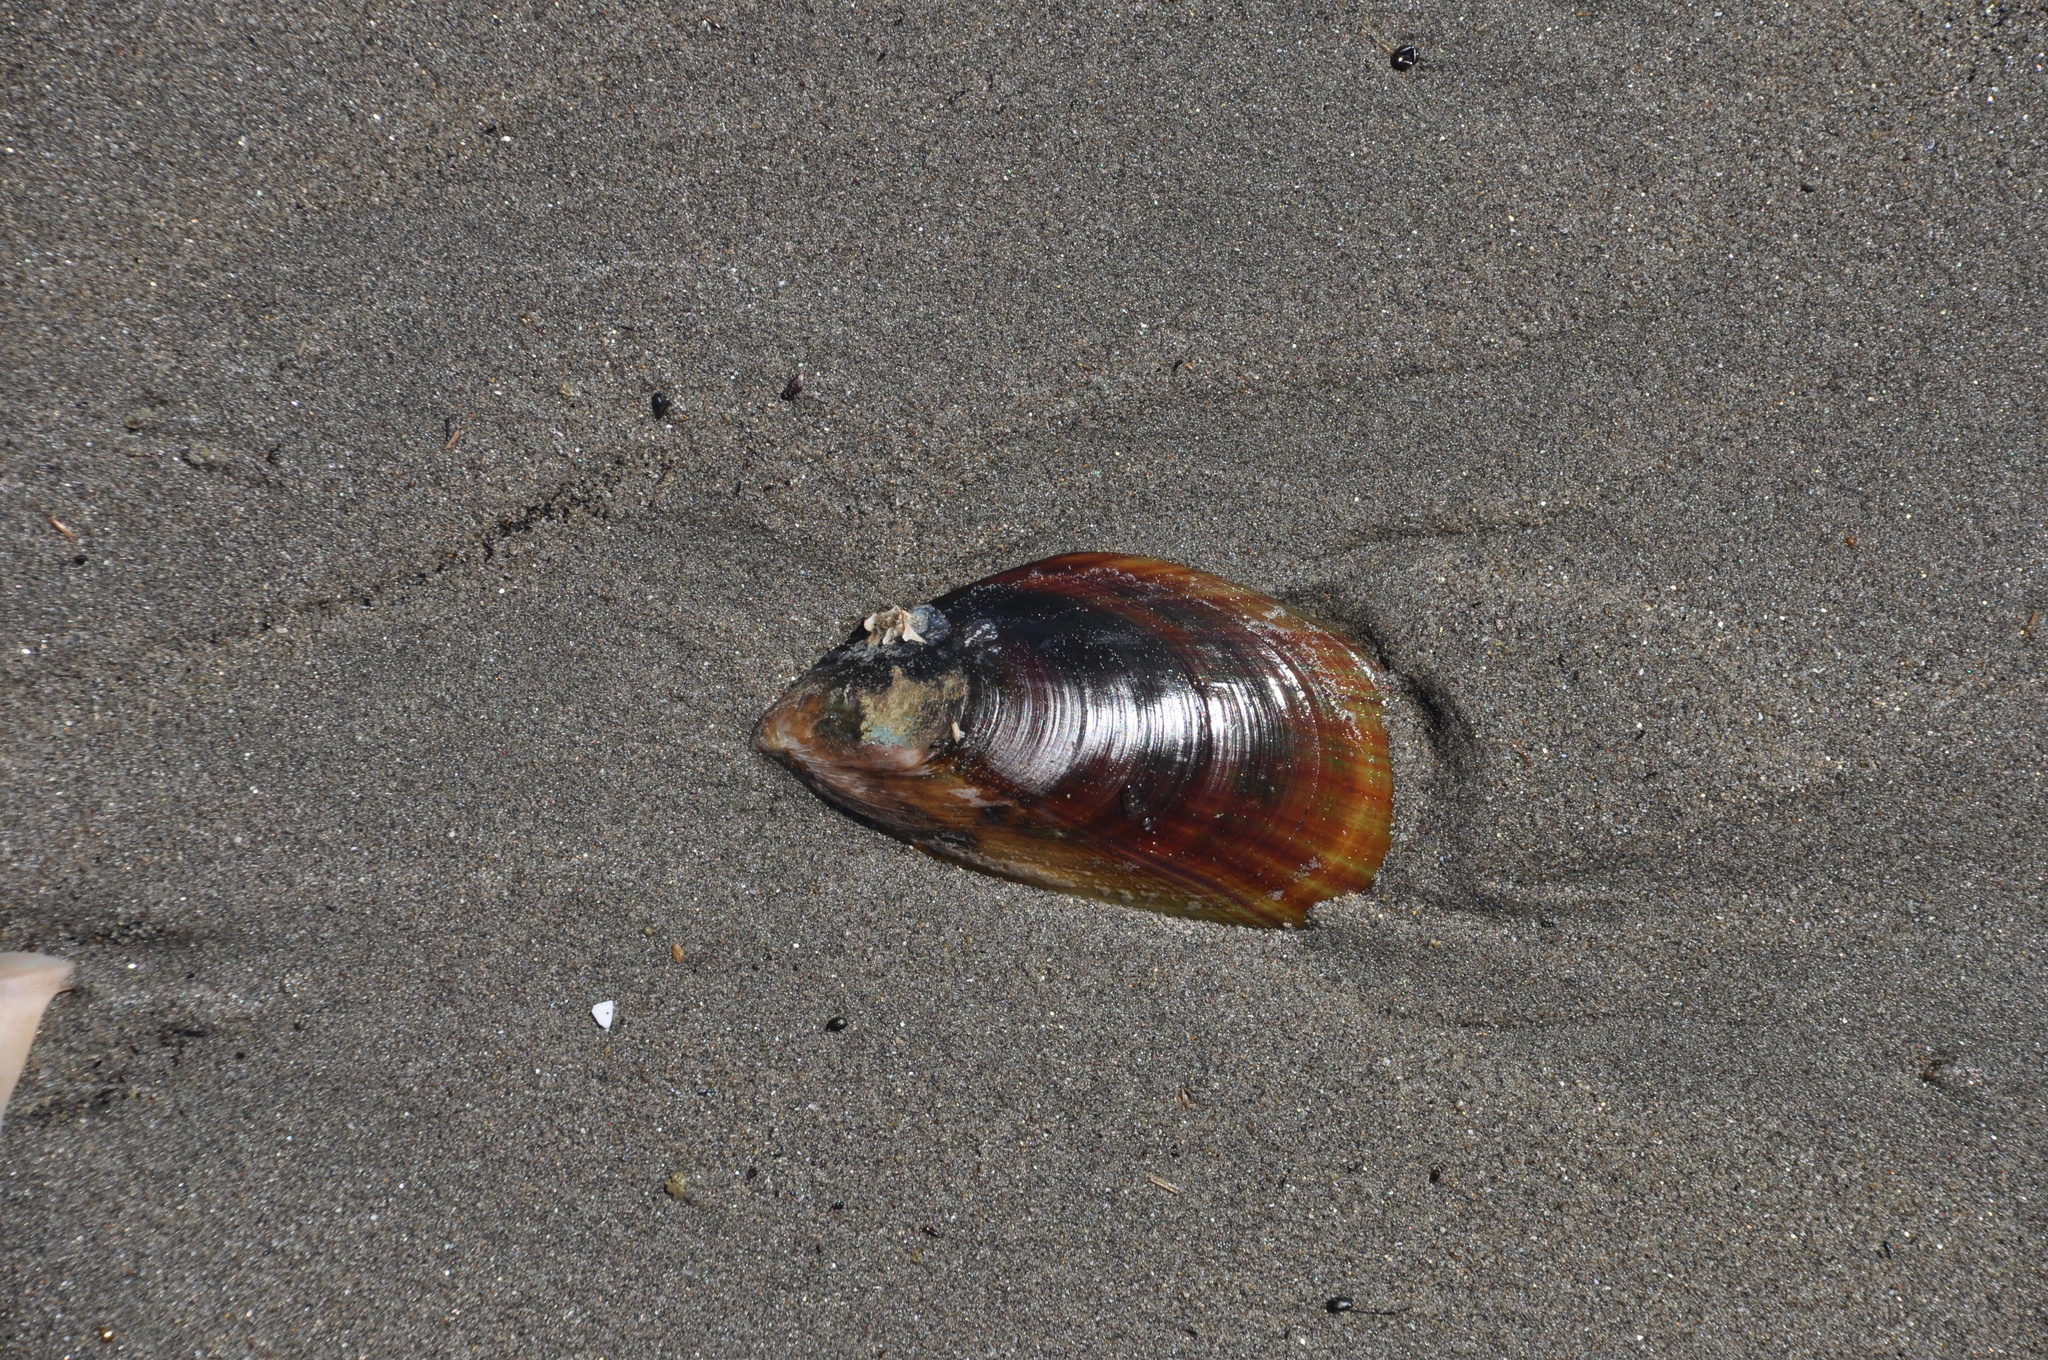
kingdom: Animalia
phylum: Mollusca
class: Bivalvia
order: Mytilida
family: Mytilidae
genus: Perna
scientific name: Perna canaliculus
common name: New zealand greenshelltm
